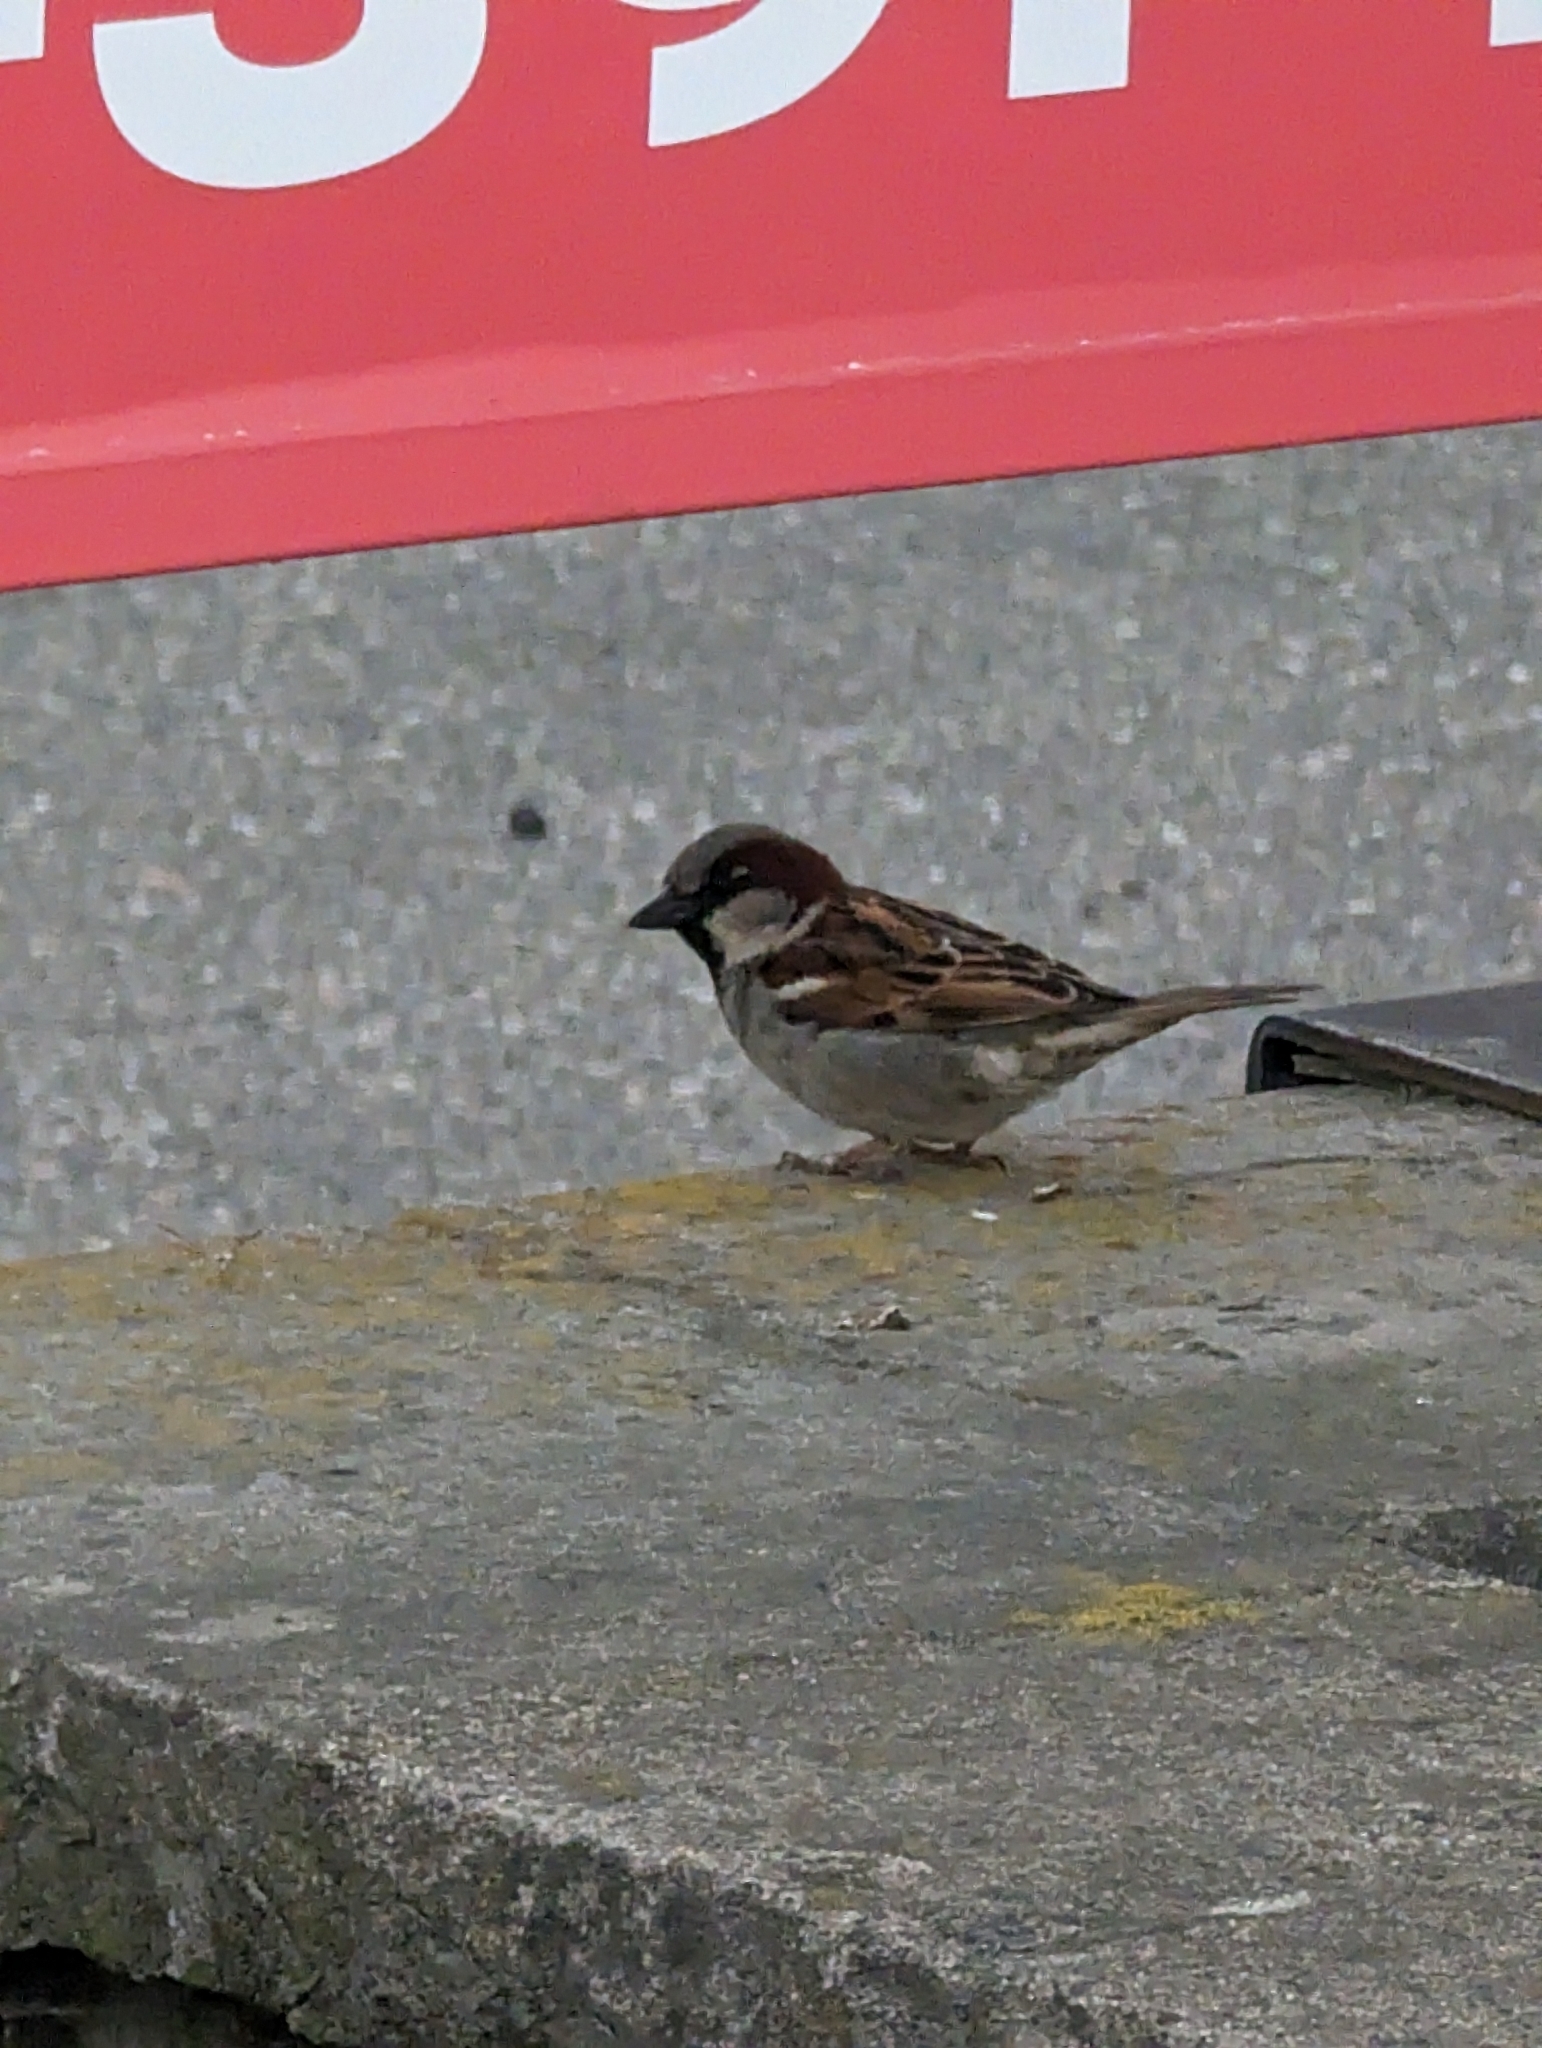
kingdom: Animalia
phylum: Chordata
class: Aves
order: Passeriformes
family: Passeridae
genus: Passer
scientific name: Passer domesticus
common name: House sparrow
